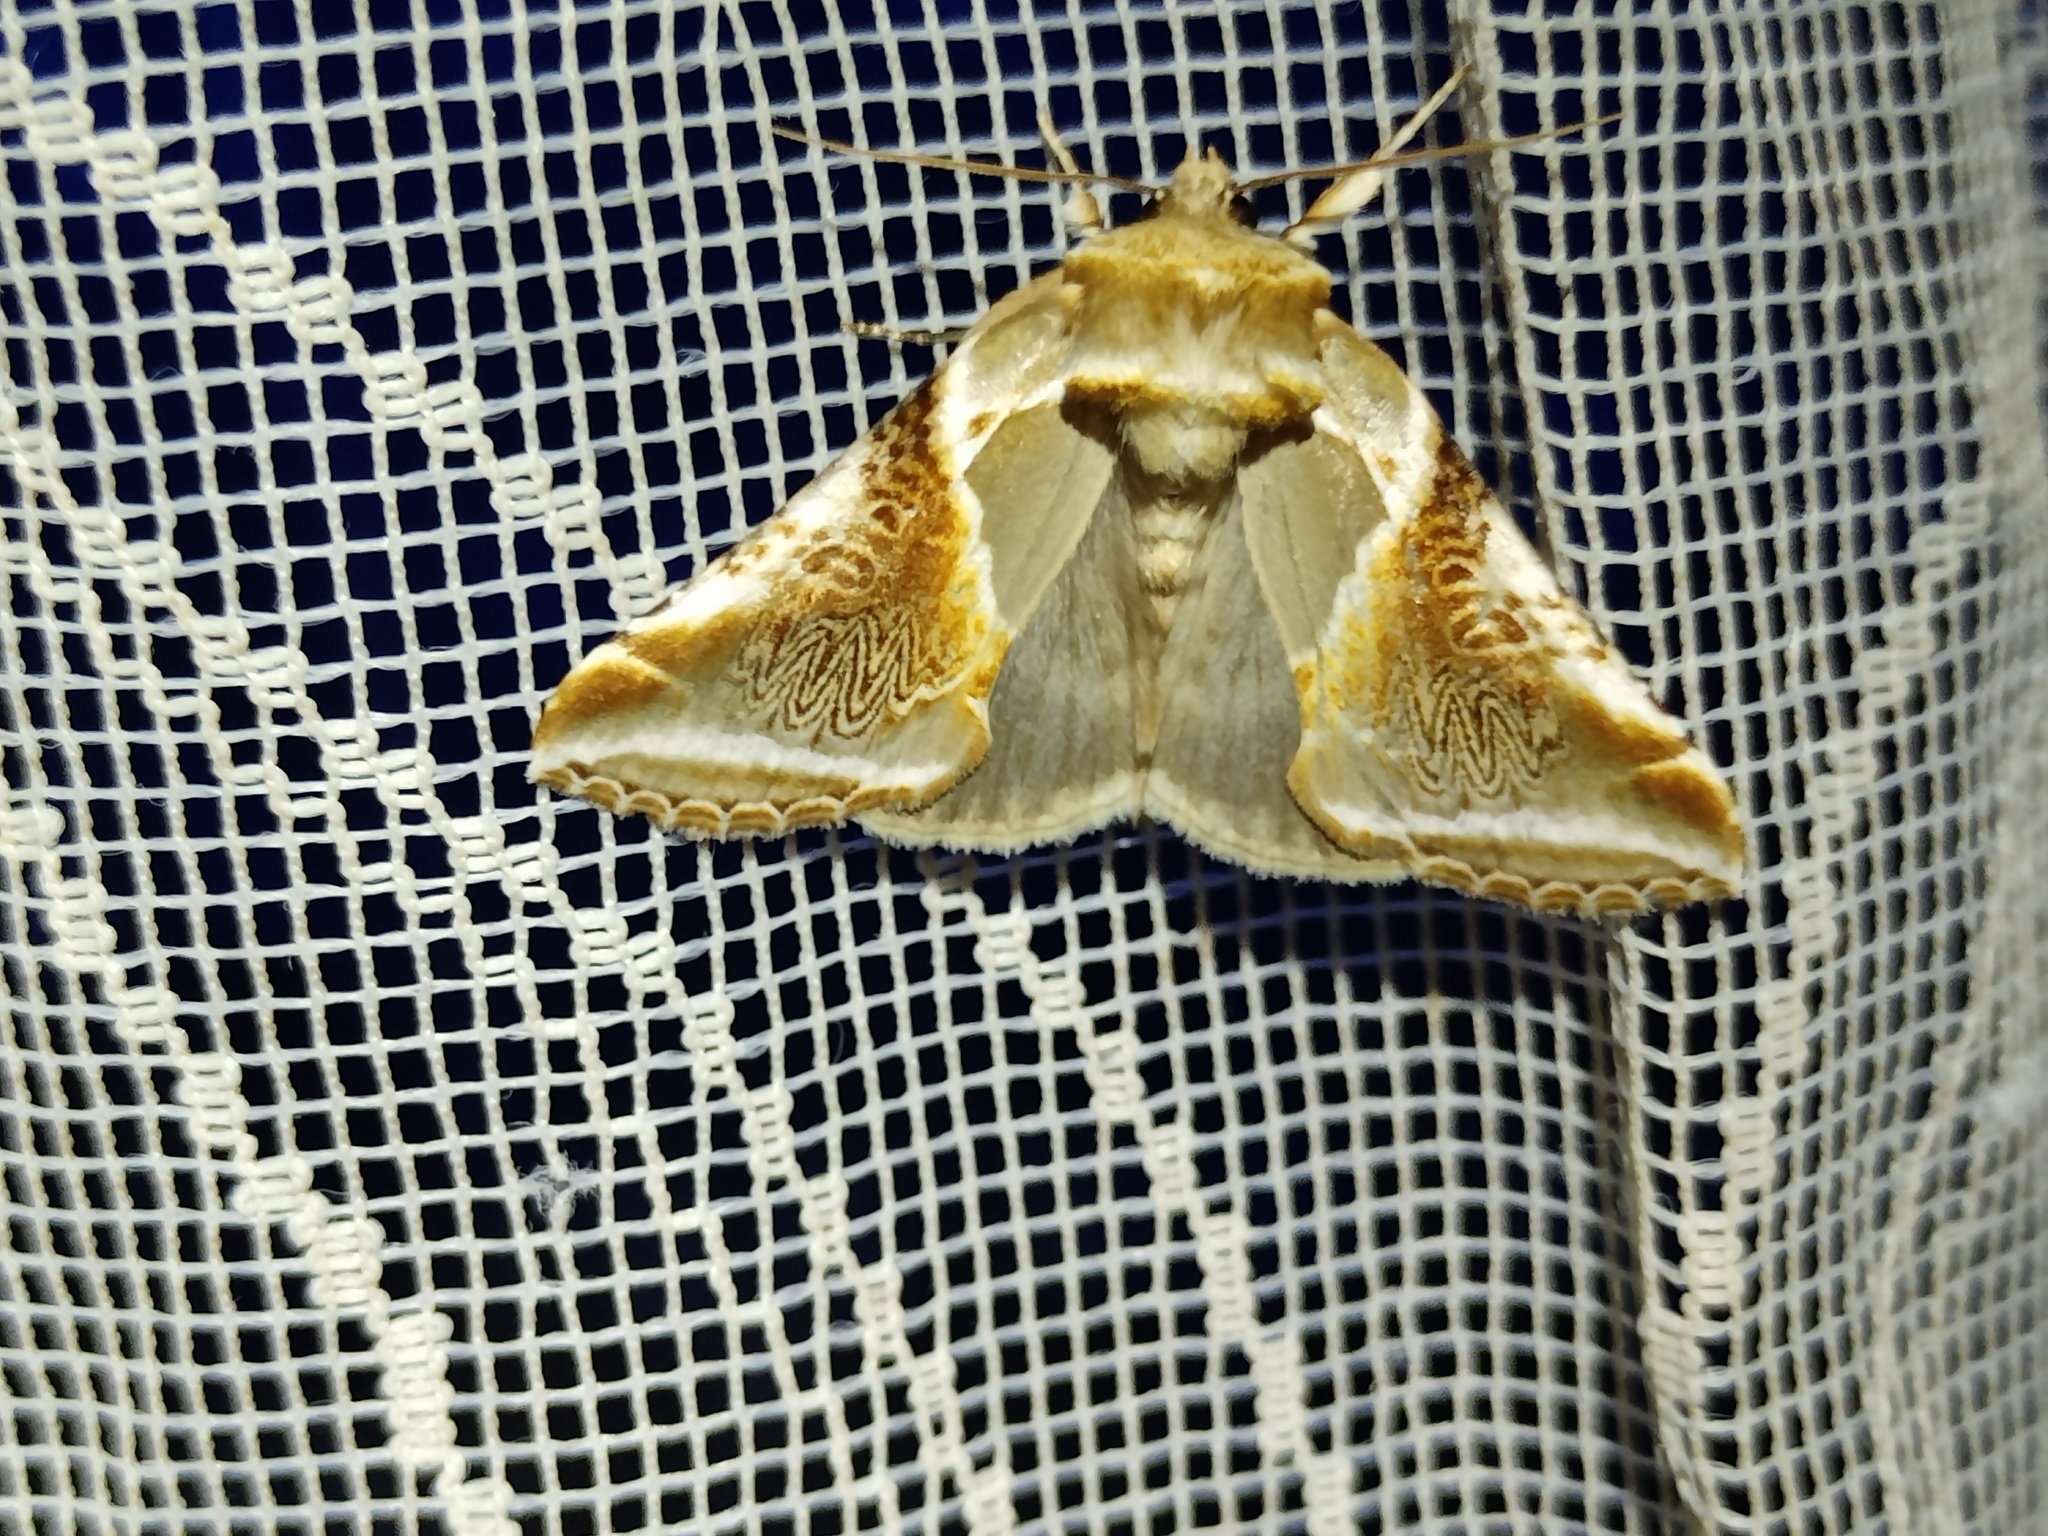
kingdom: Animalia
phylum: Arthropoda
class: Insecta
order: Lepidoptera
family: Drepanidae
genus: Habrosyne
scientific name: Habrosyne pyritoides
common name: Buff arches
